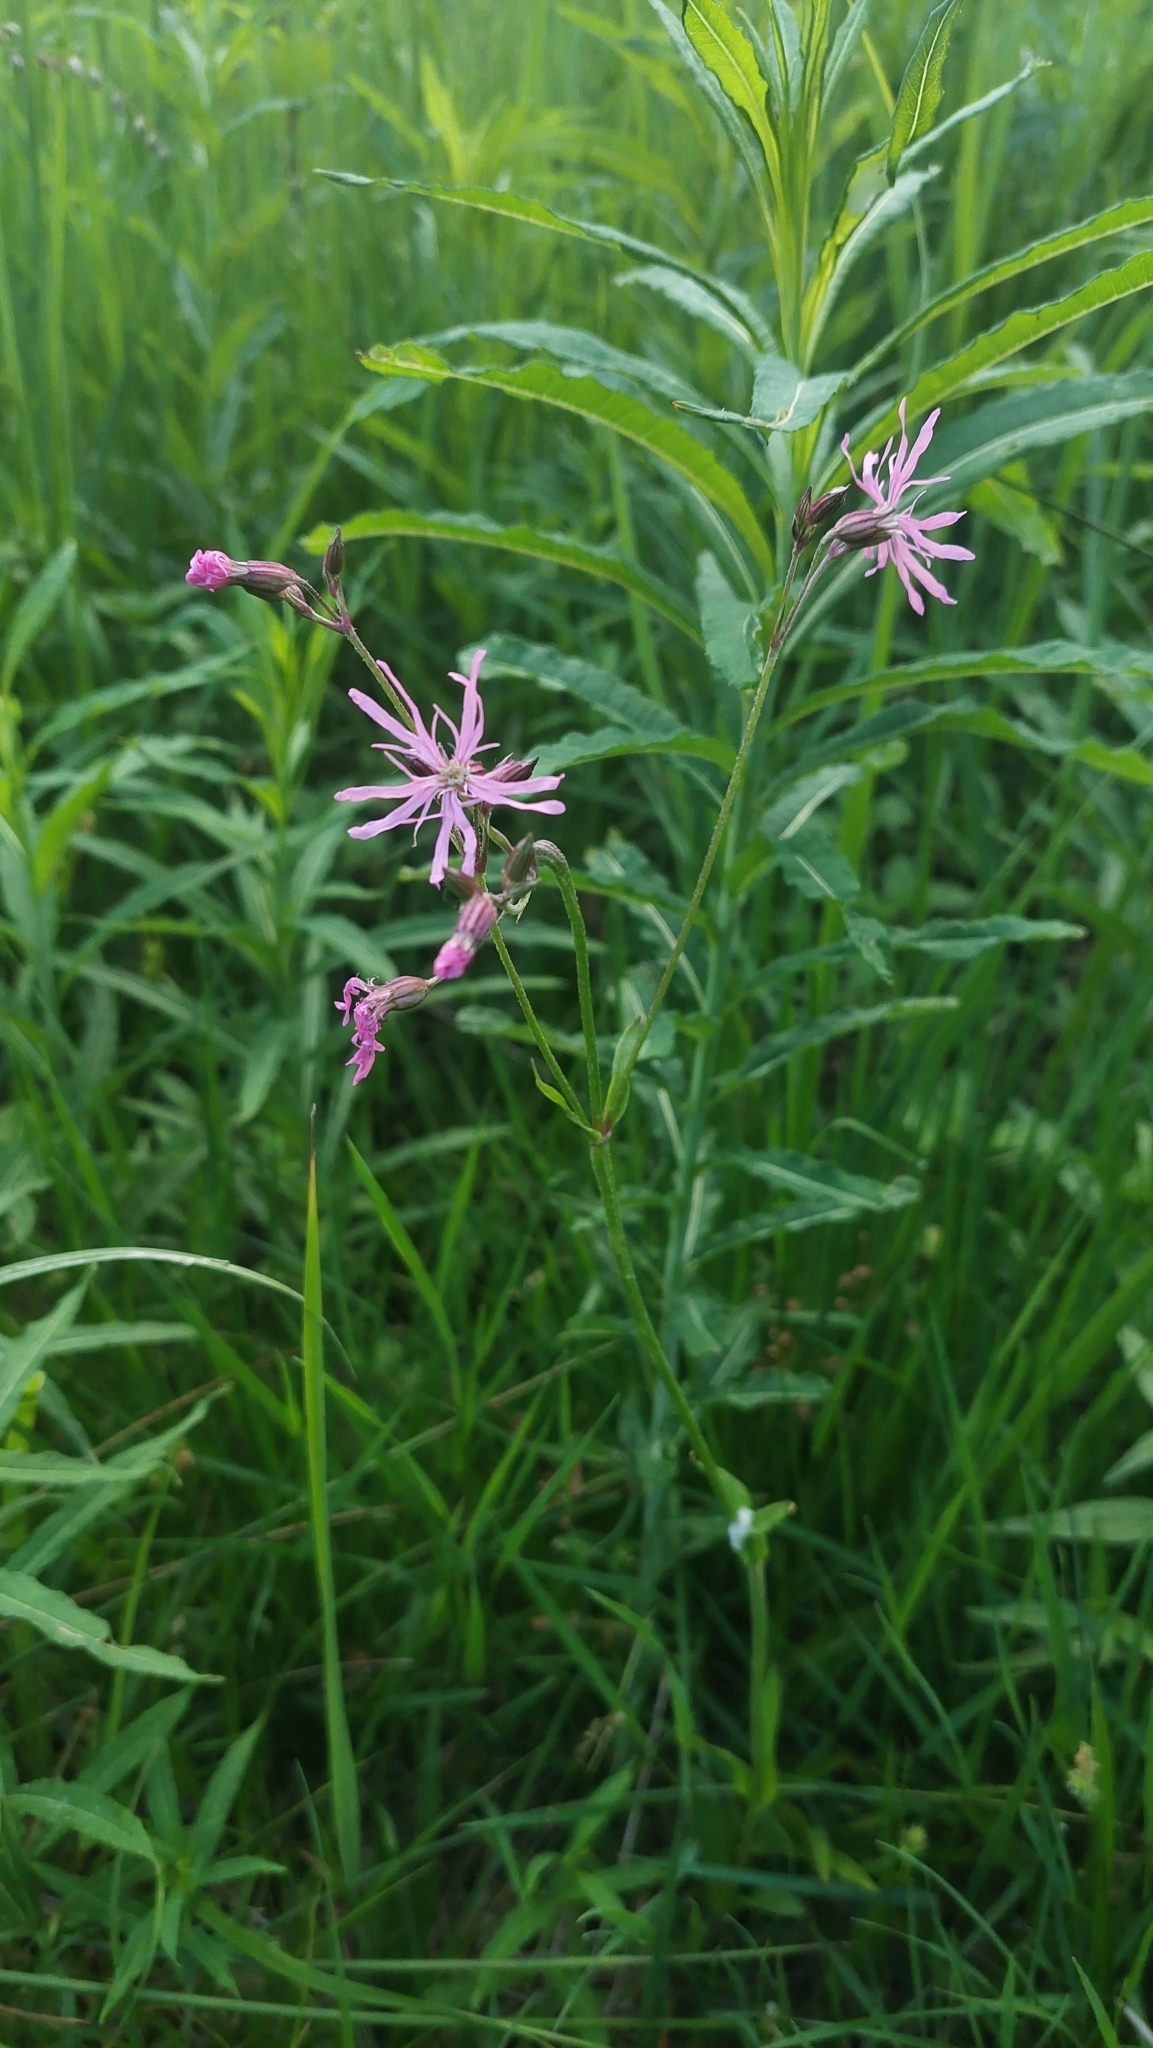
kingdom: Plantae
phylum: Tracheophyta
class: Magnoliopsida
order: Caryophyllales
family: Caryophyllaceae
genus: Silene
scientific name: Silene flos-cuculi
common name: Ragged-robin
